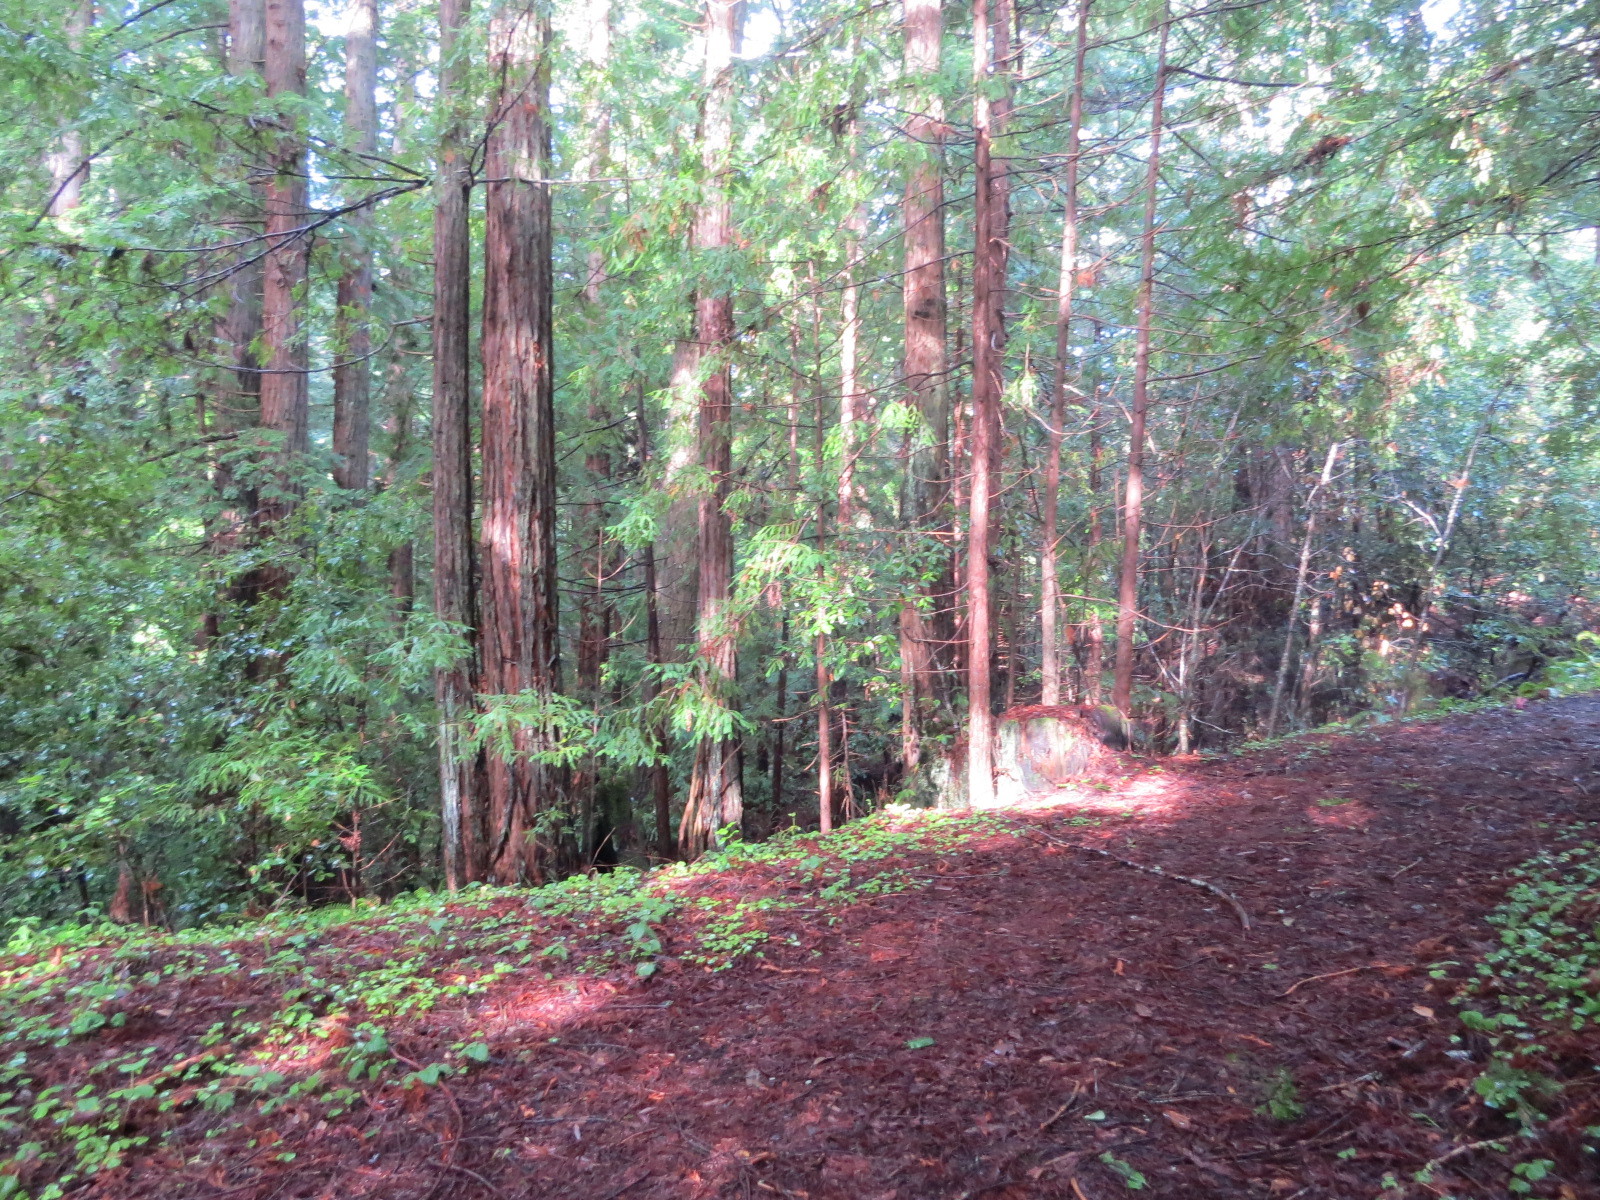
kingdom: Plantae
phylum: Tracheophyta
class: Pinopsida
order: Pinales
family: Cupressaceae
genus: Sequoia
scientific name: Sequoia sempervirens
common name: Coast redwood
